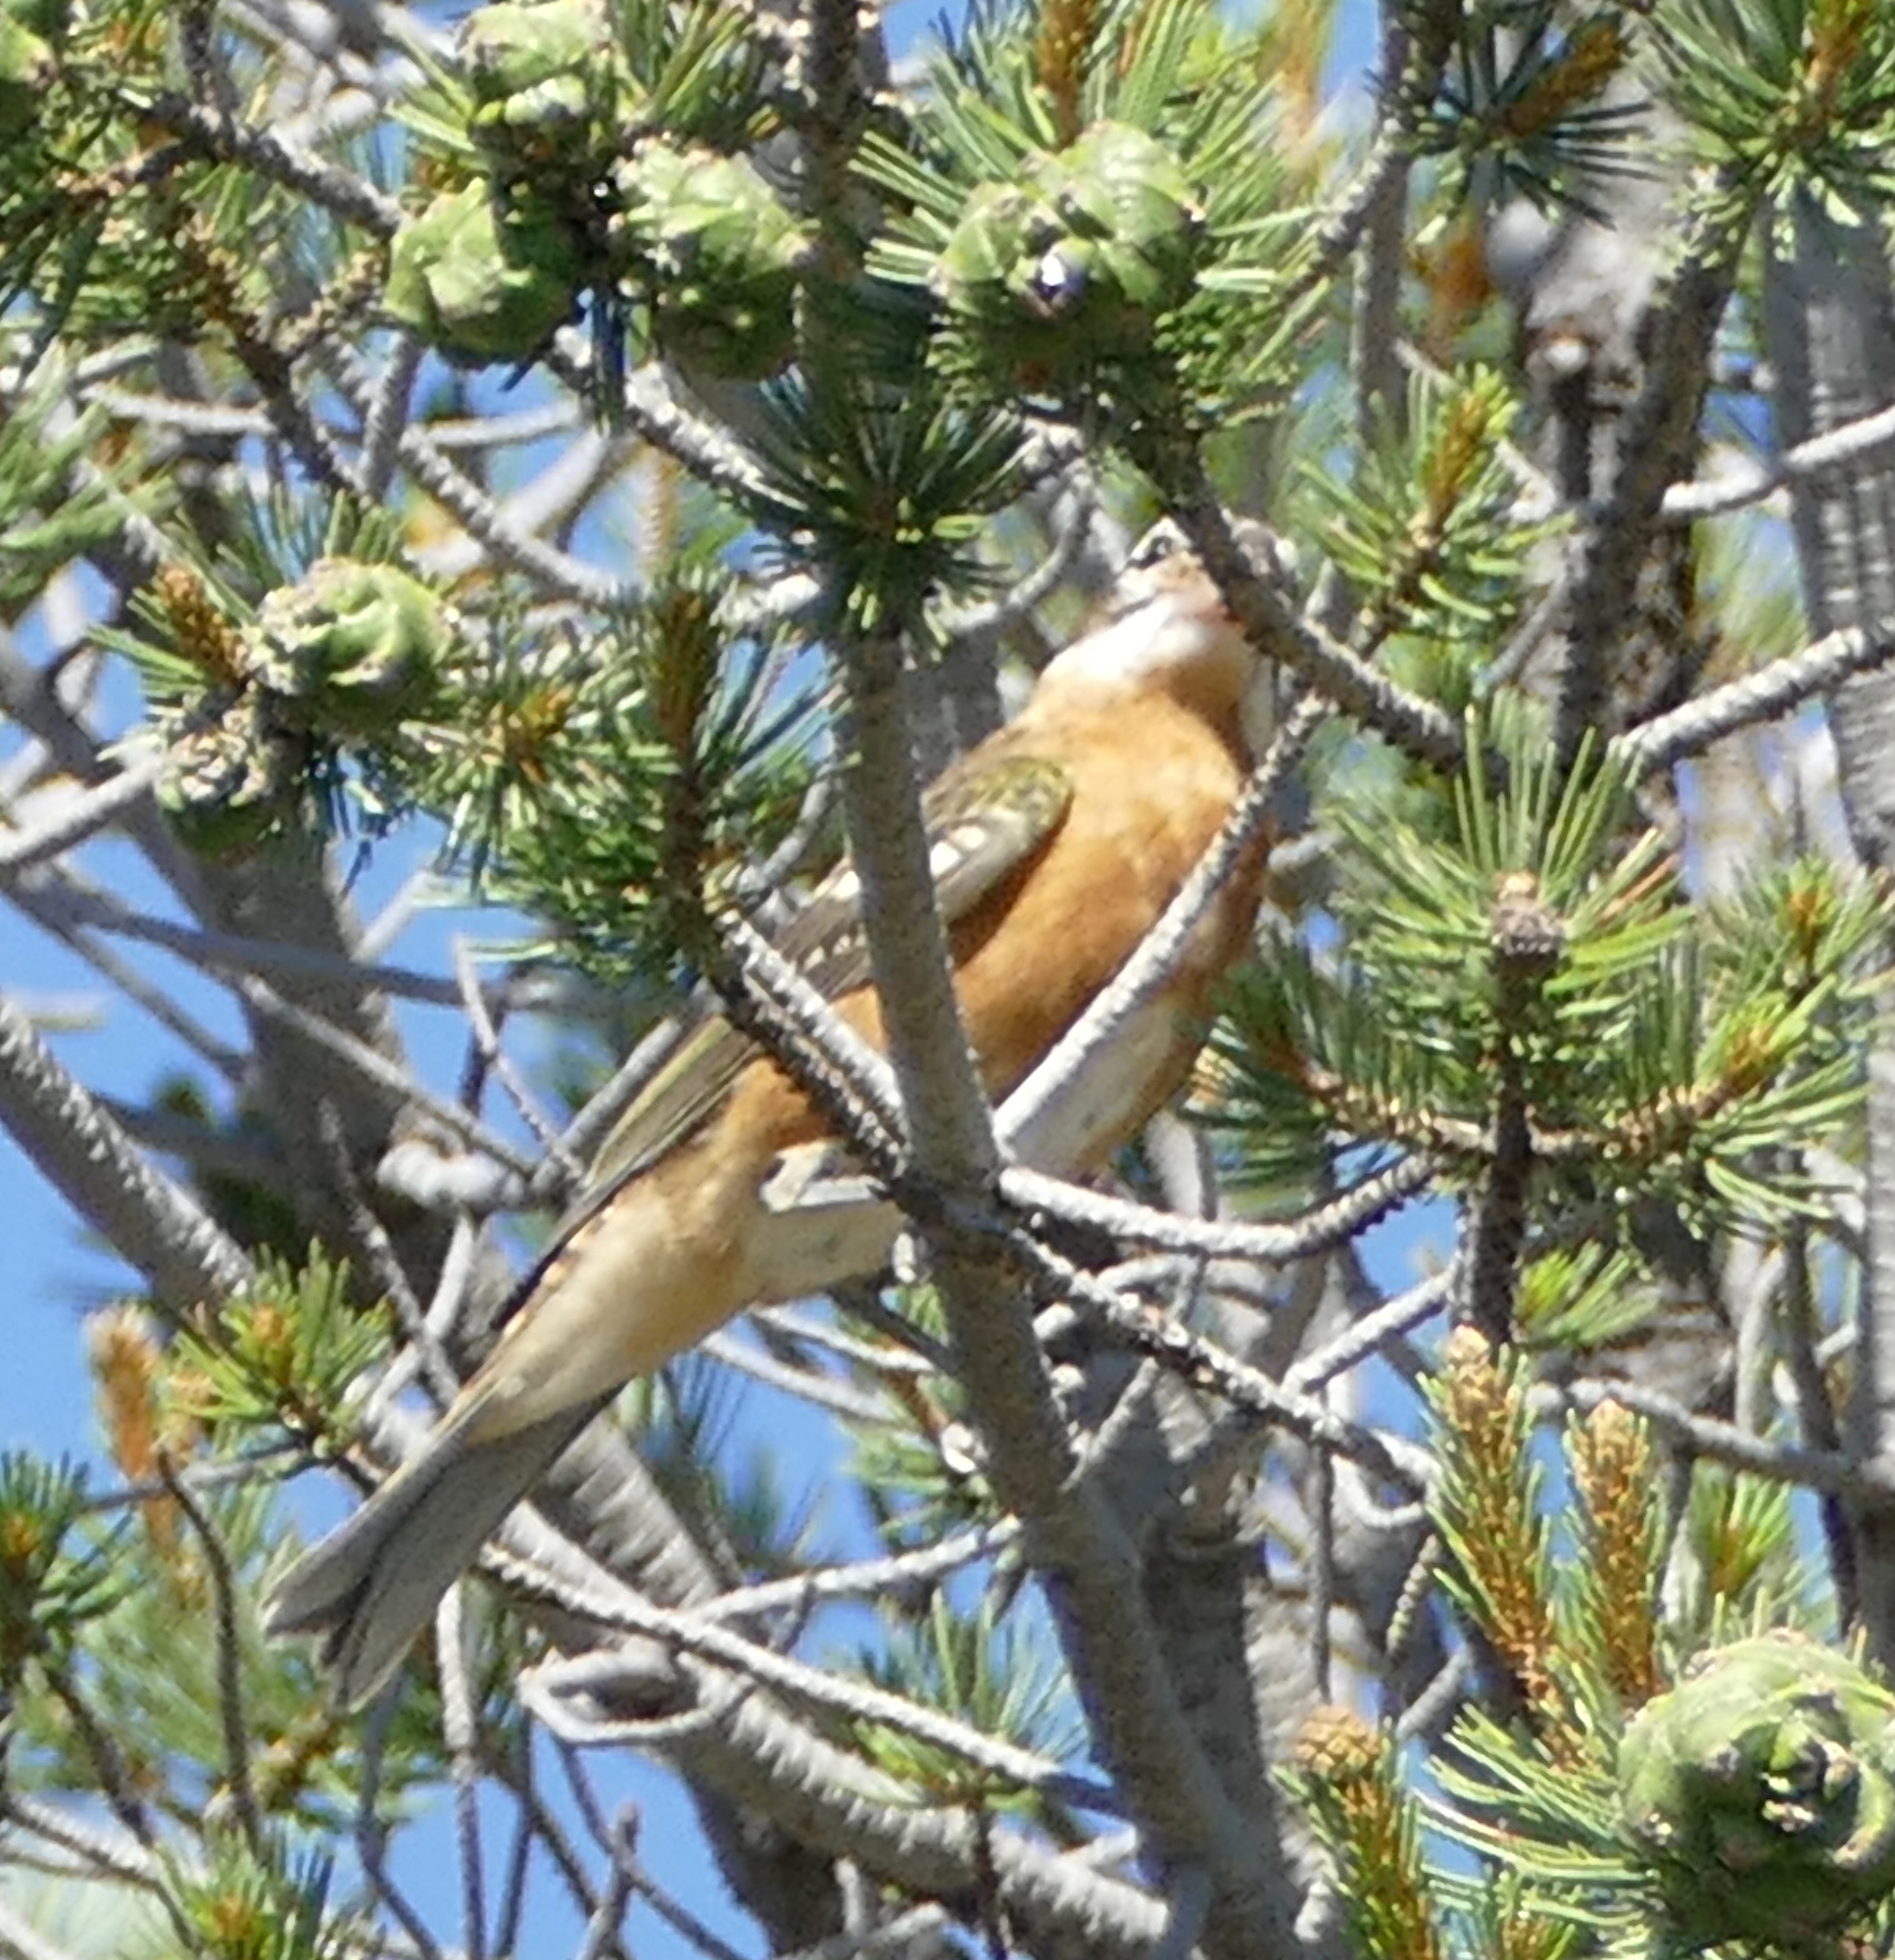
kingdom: Animalia
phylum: Chordata
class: Aves
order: Passeriformes
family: Cardinalidae
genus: Pheucticus
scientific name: Pheucticus melanocephalus
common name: Black-headed grosbeak
